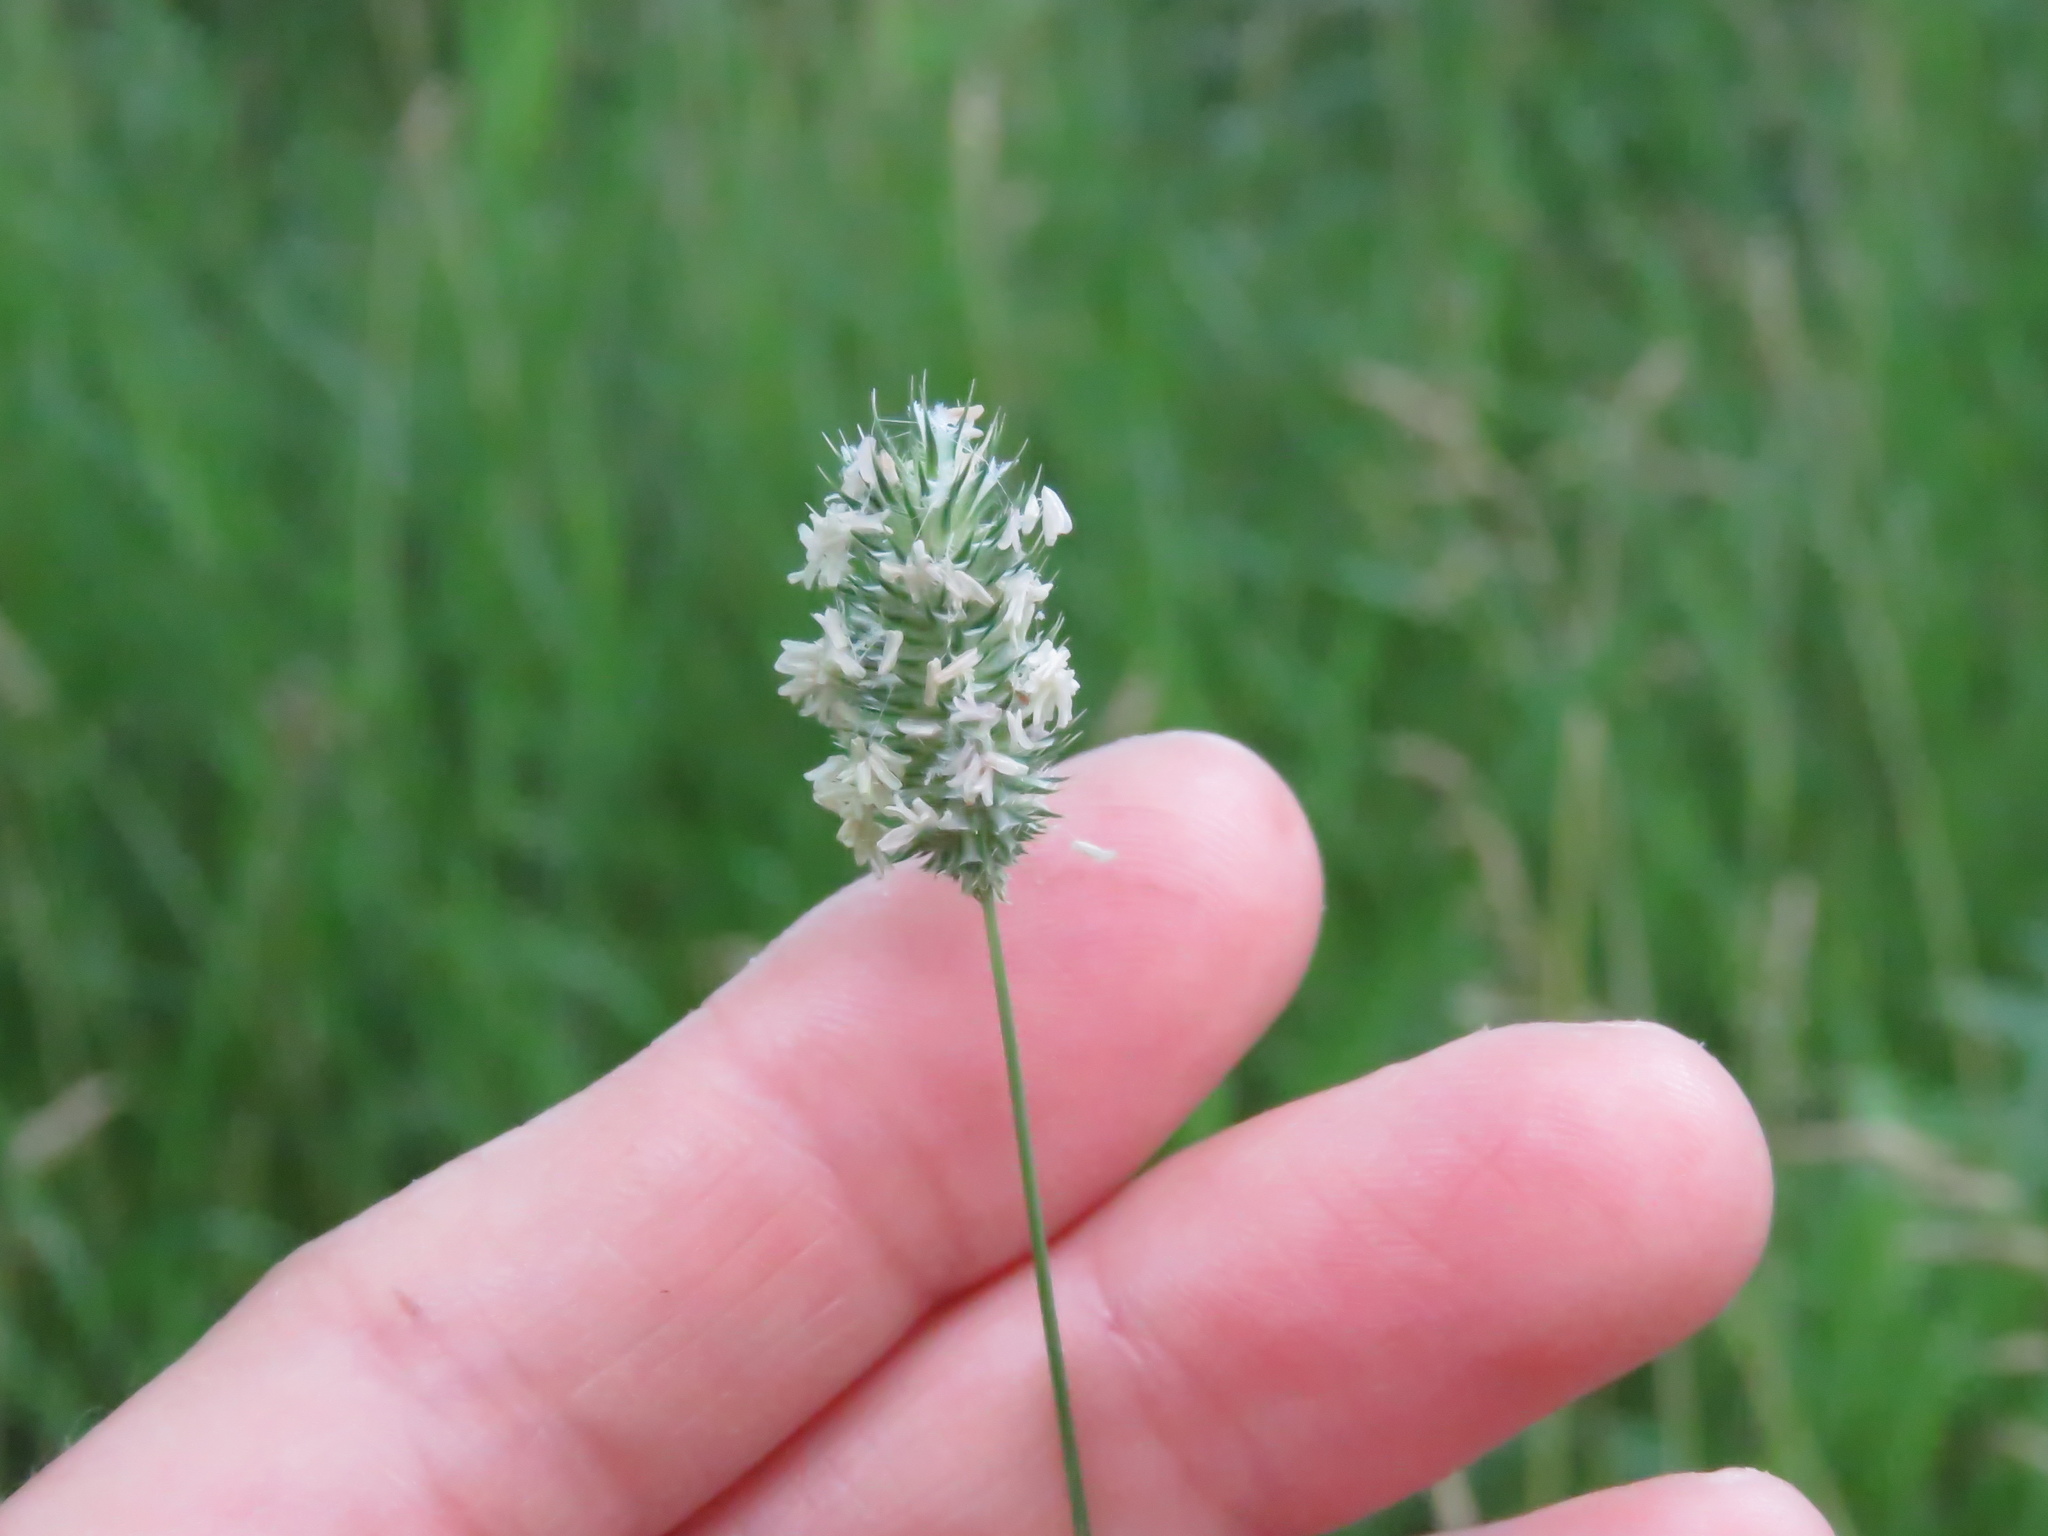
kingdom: Plantae
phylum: Tracheophyta
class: Liliopsida
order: Poales
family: Poaceae
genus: Phleum
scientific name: Phleum pratense
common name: Timothy grass
